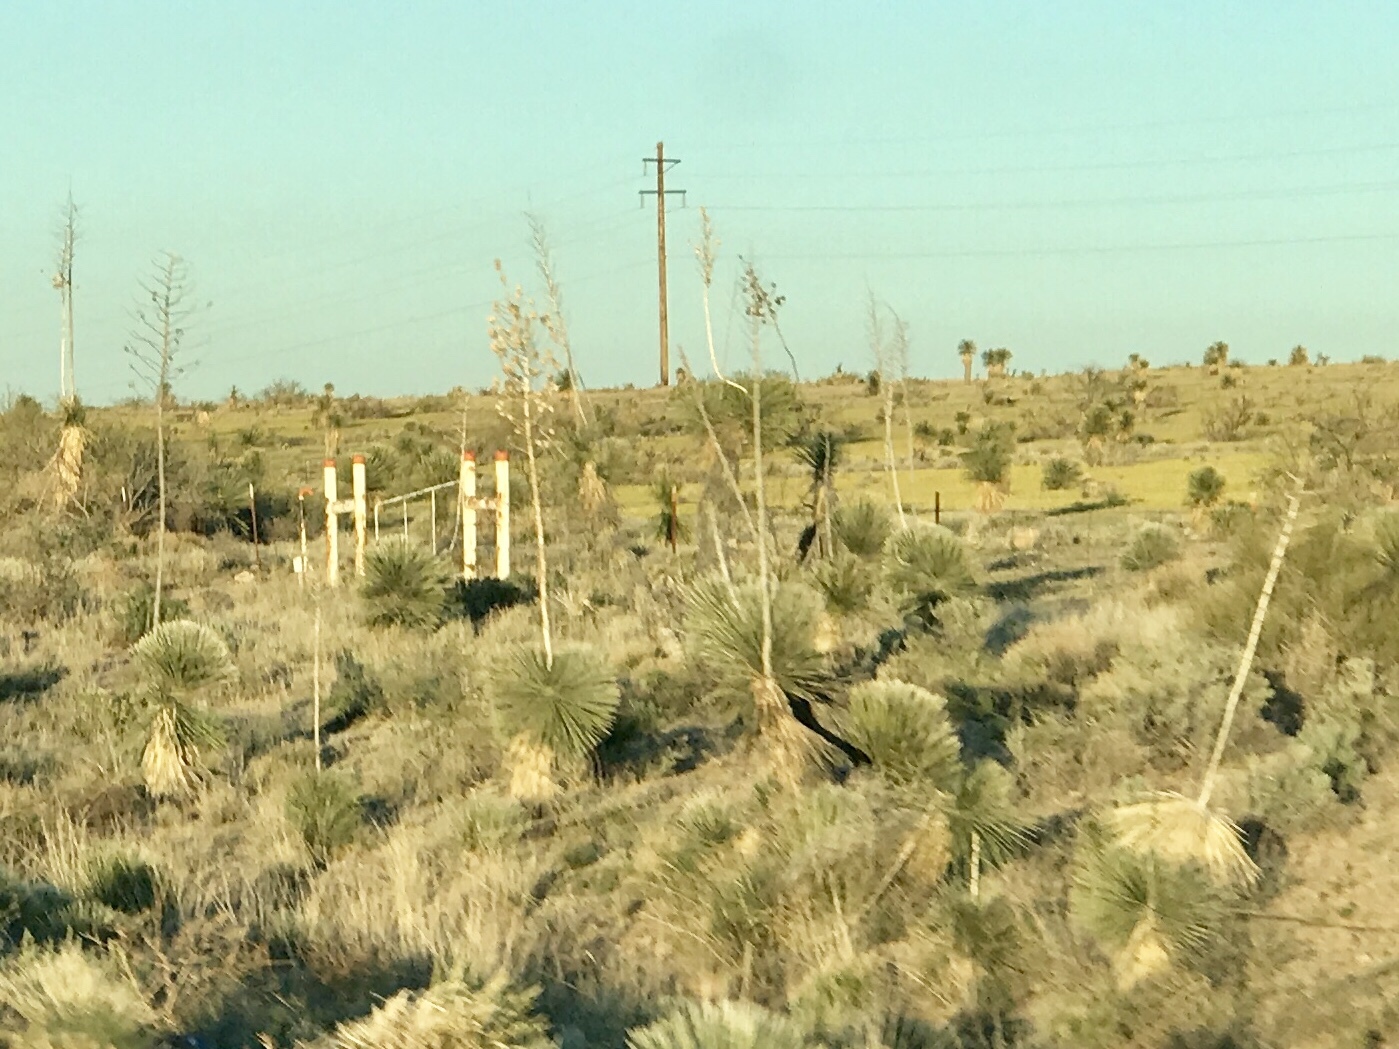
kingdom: Plantae
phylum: Tracheophyta
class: Liliopsida
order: Asparagales
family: Asparagaceae
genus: Yucca
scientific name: Yucca elata
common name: Palmella
